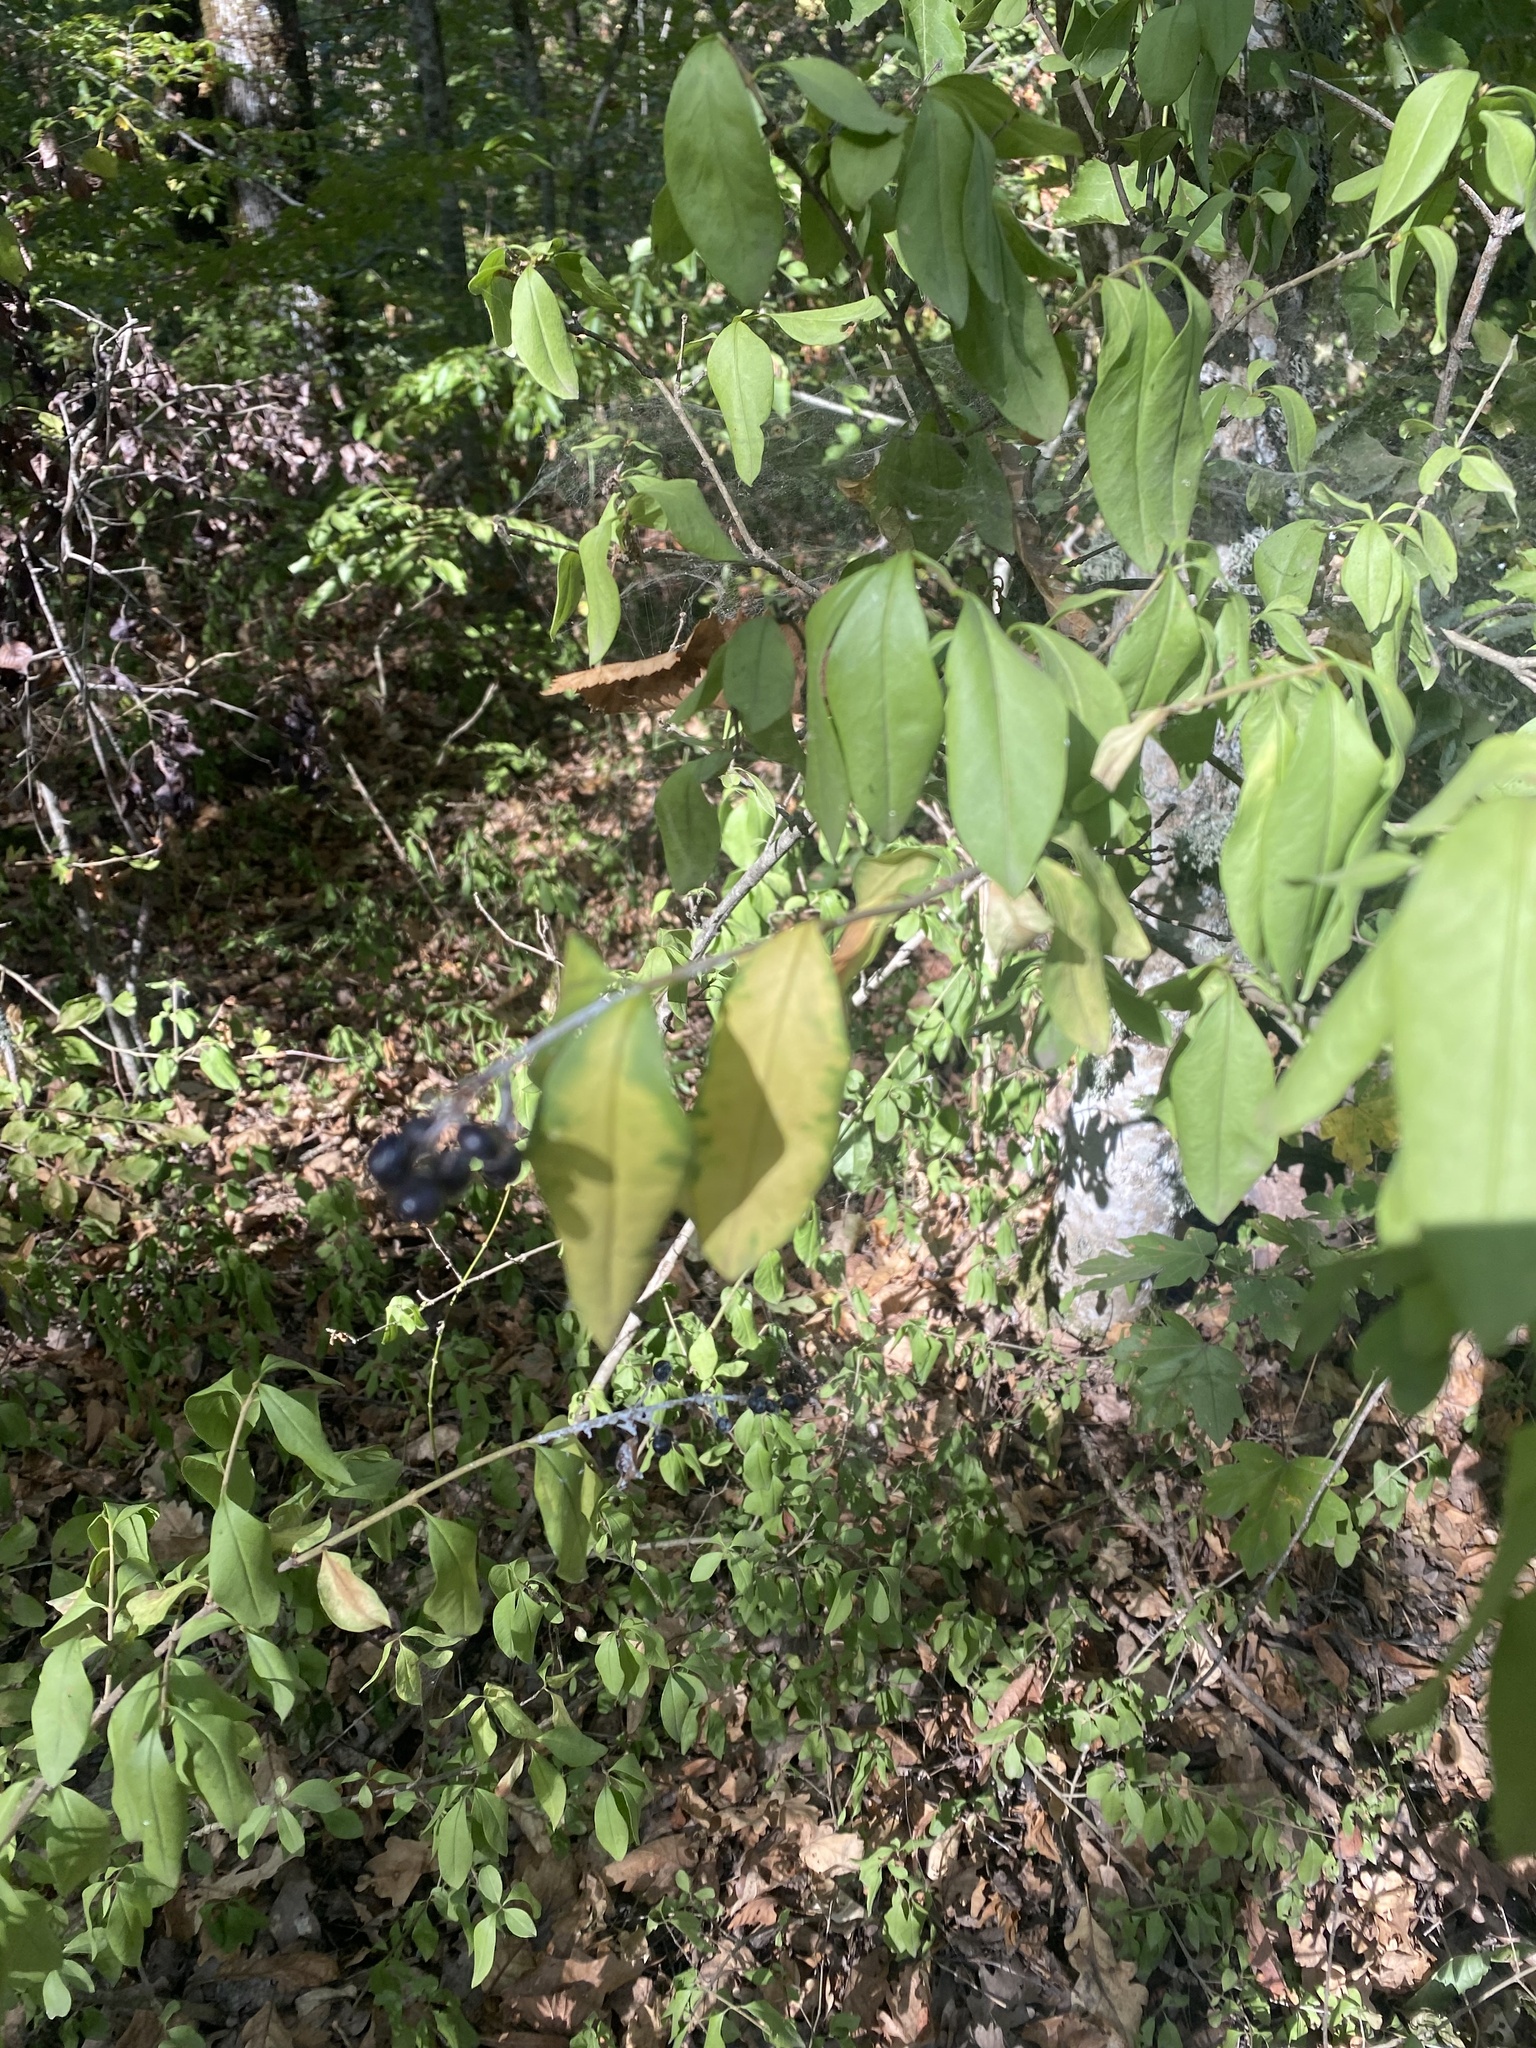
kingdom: Plantae
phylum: Tracheophyta
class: Magnoliopsida
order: Lamiales
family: Oleaceae
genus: Ligustrum
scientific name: Ligustrum vulgare
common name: Wild privet
